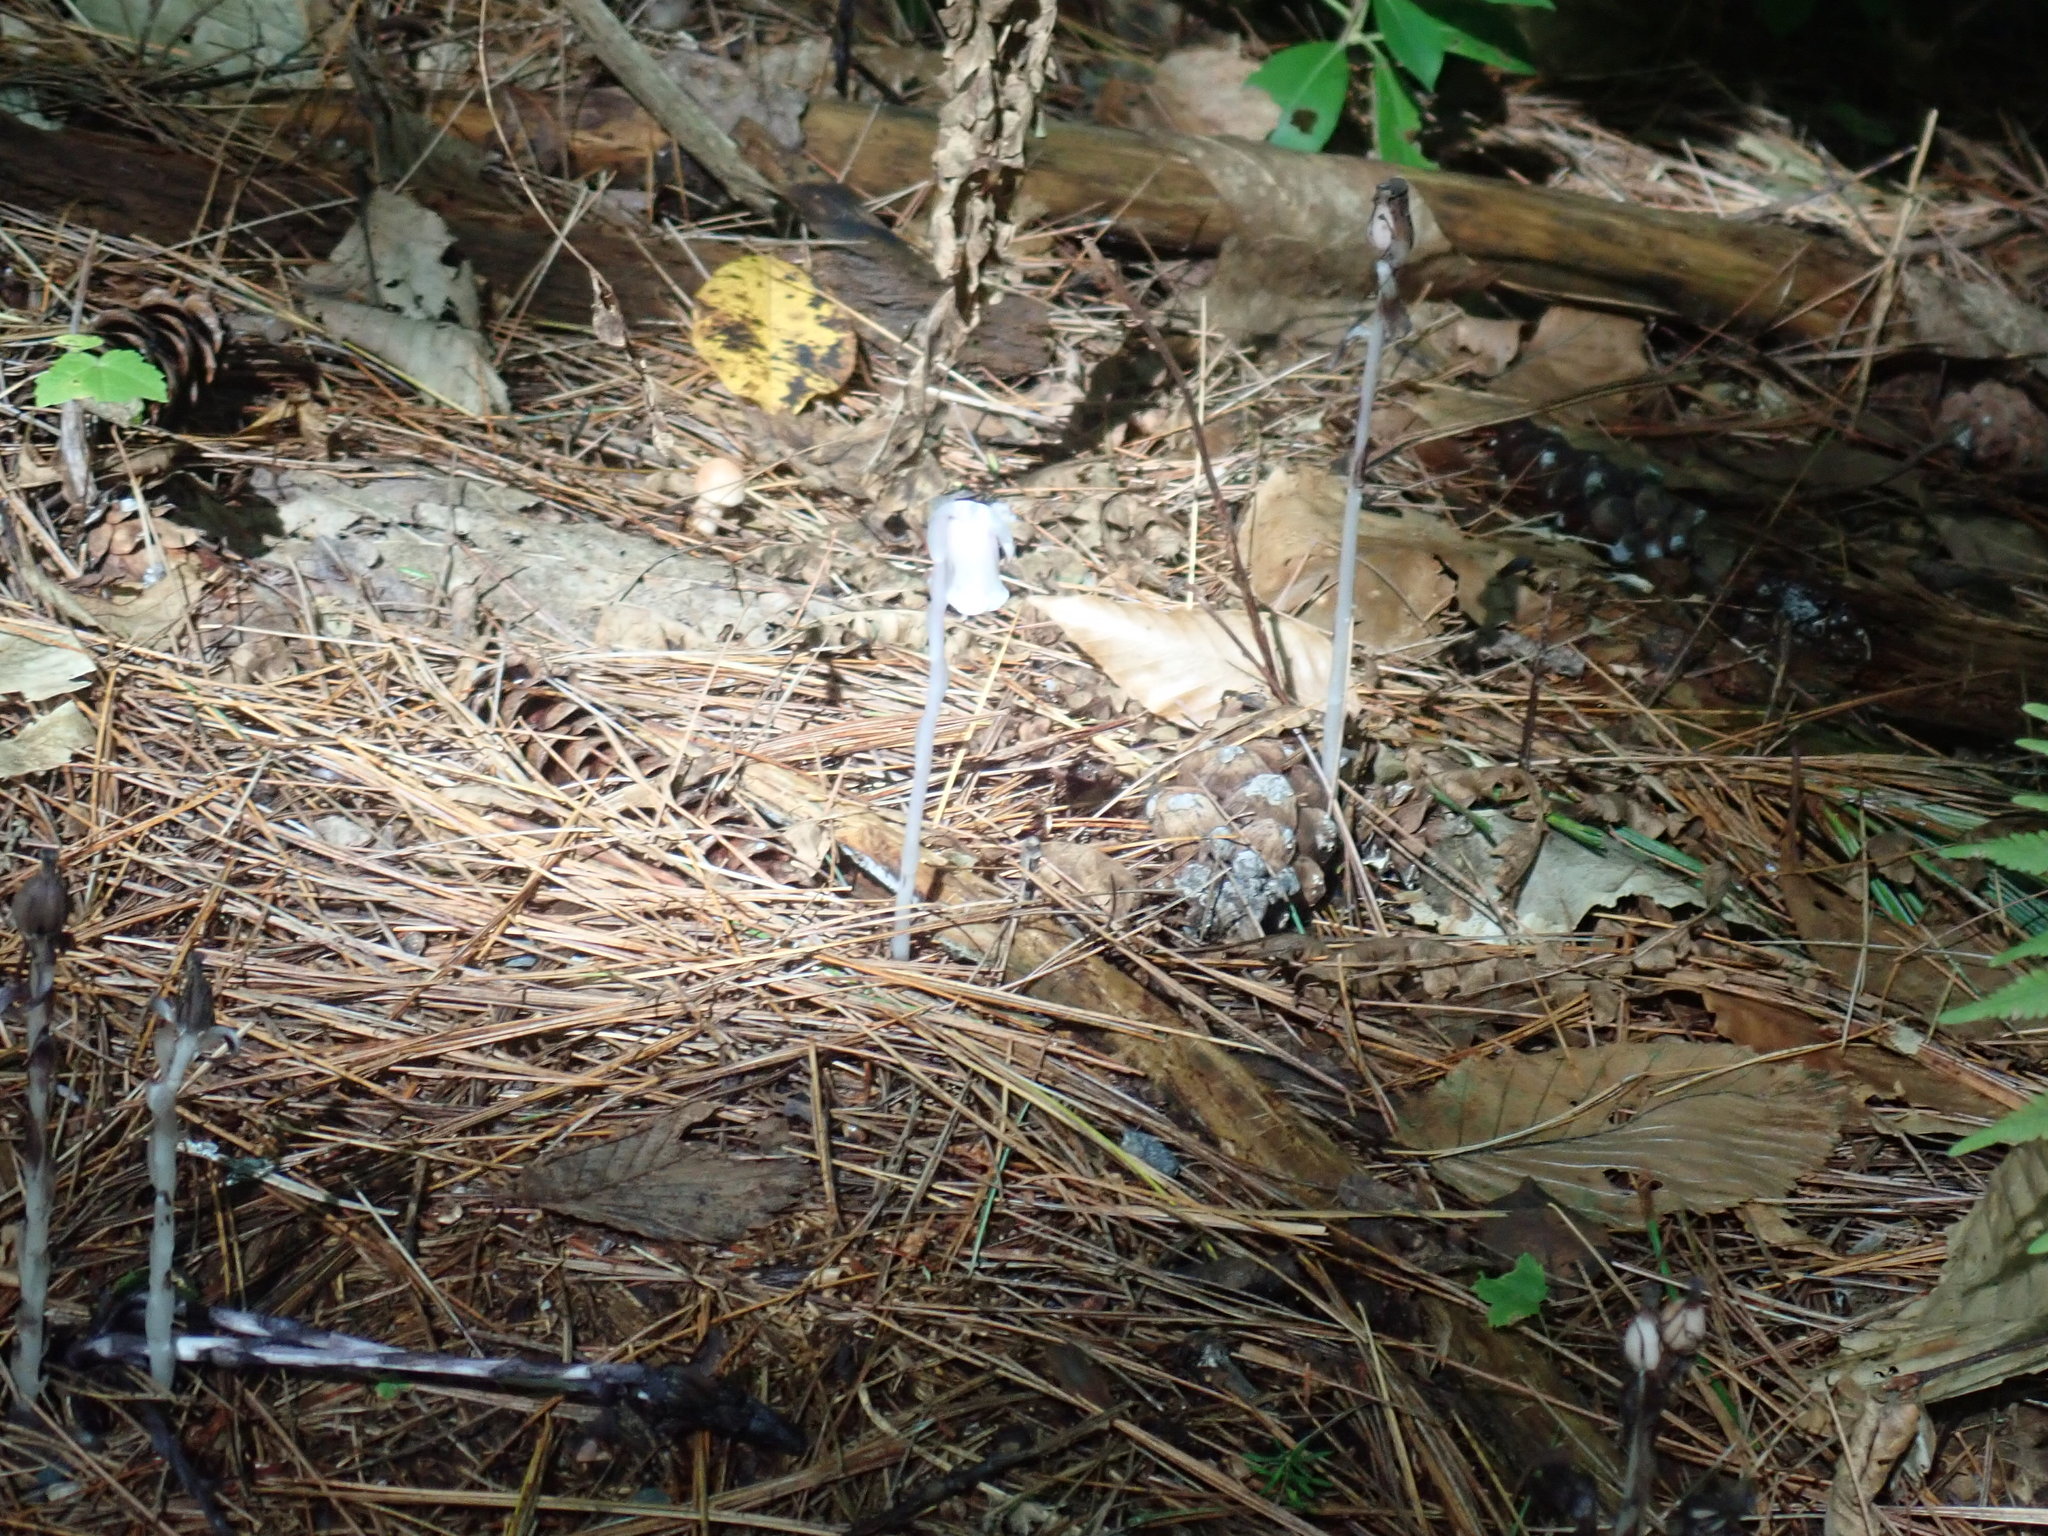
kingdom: Plantae
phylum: Tracheophyta
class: Magnoliopsida
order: Ericales
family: Ericaceae
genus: Monotropa
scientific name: Monotropa uniflora
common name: Convulsion root
